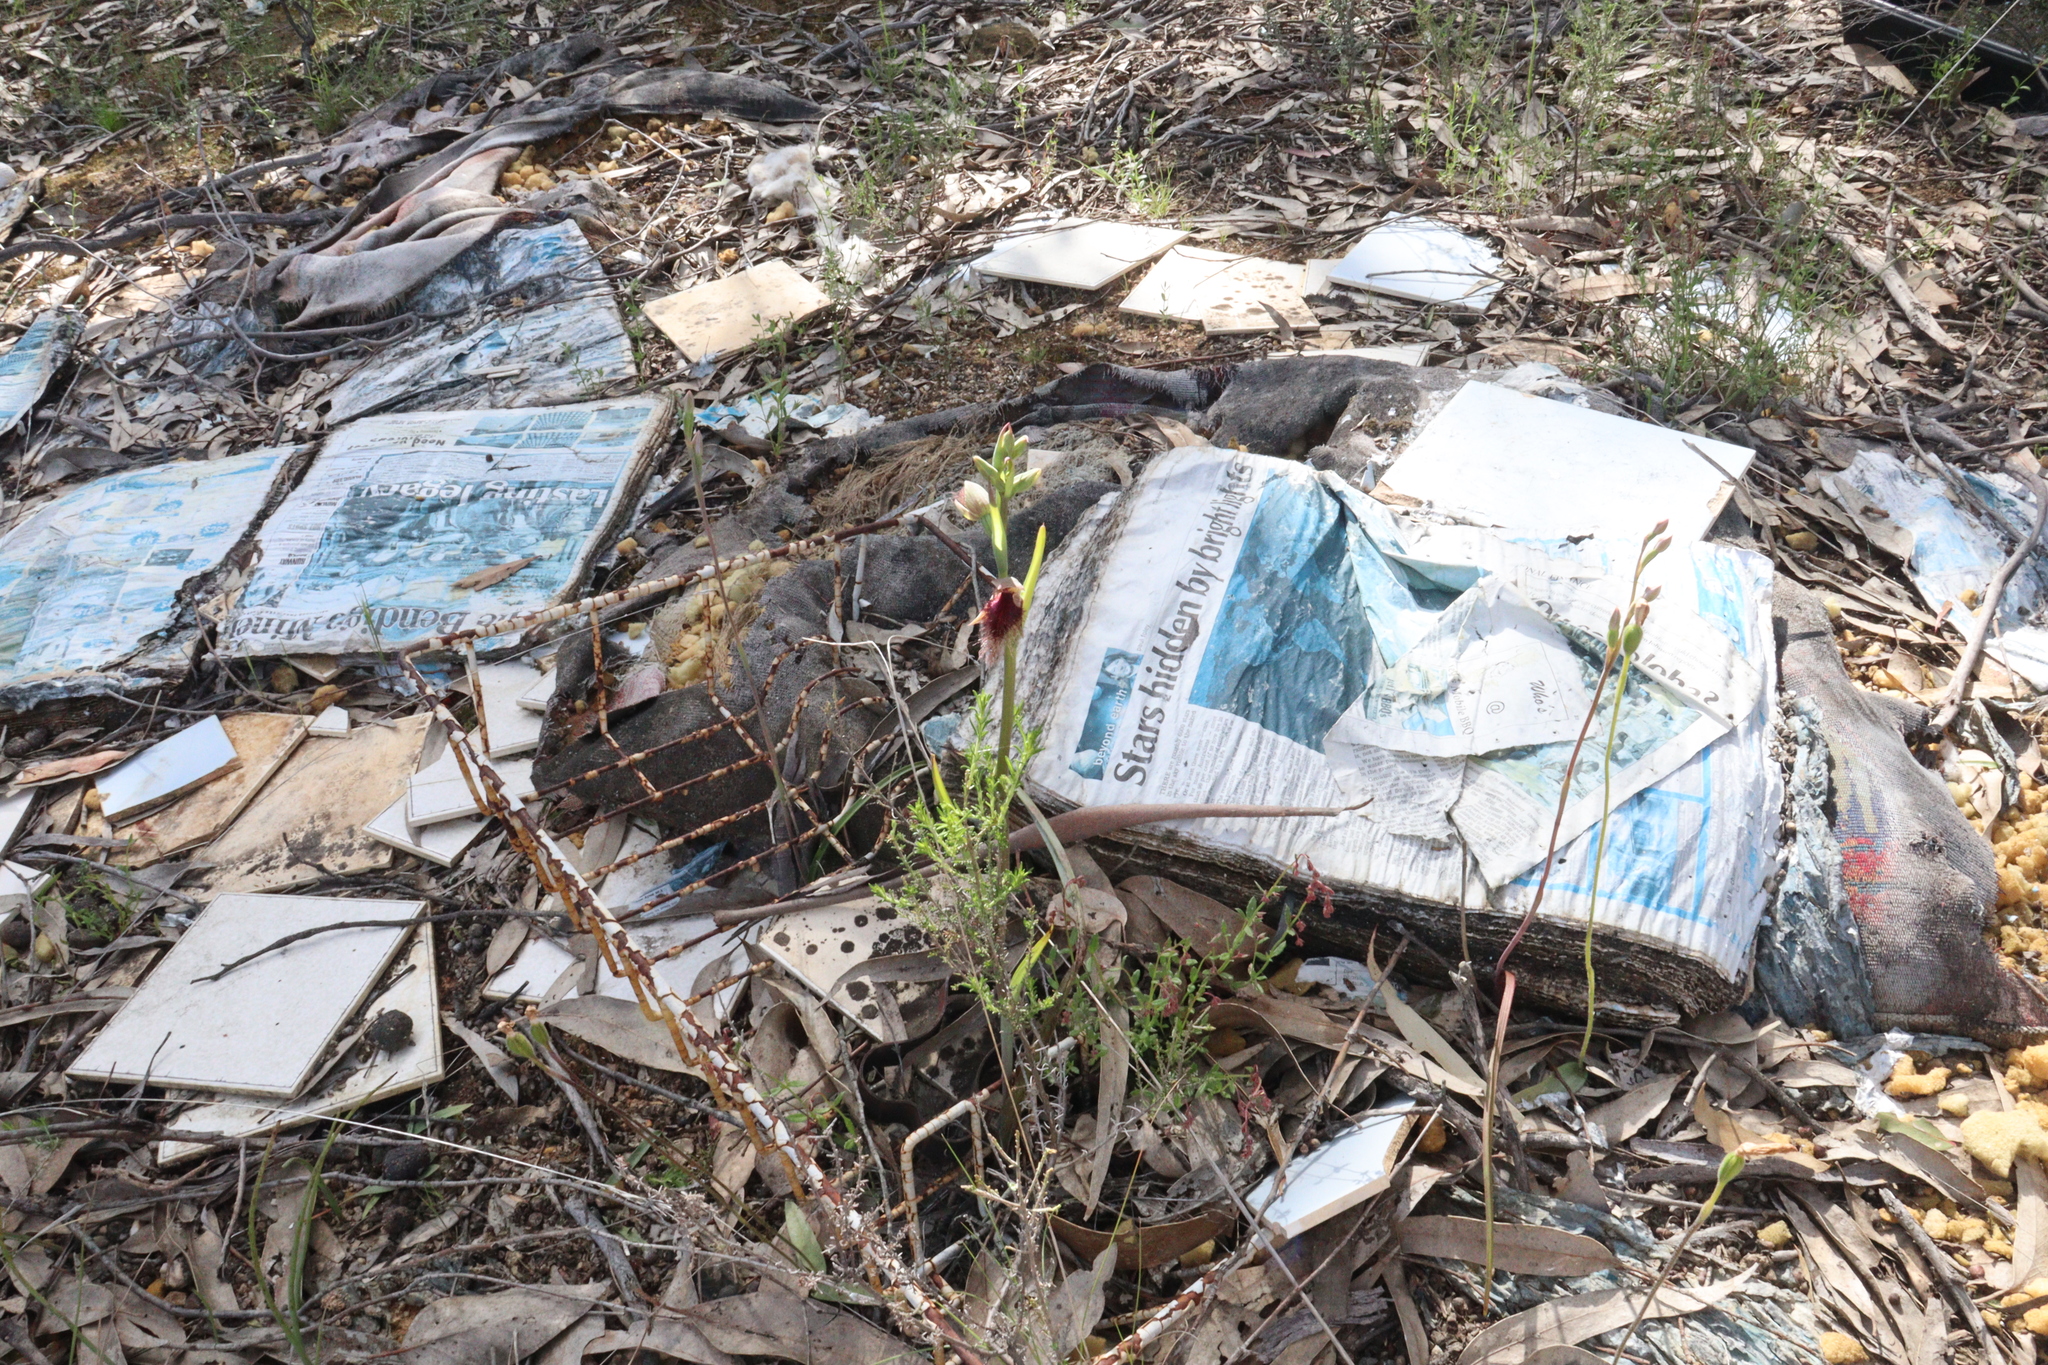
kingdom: Plantae
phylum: Tracheophyta
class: Liliopsida
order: Asparagales
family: Orchidaceae
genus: Calochilus
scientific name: Calochilus robertsonii
